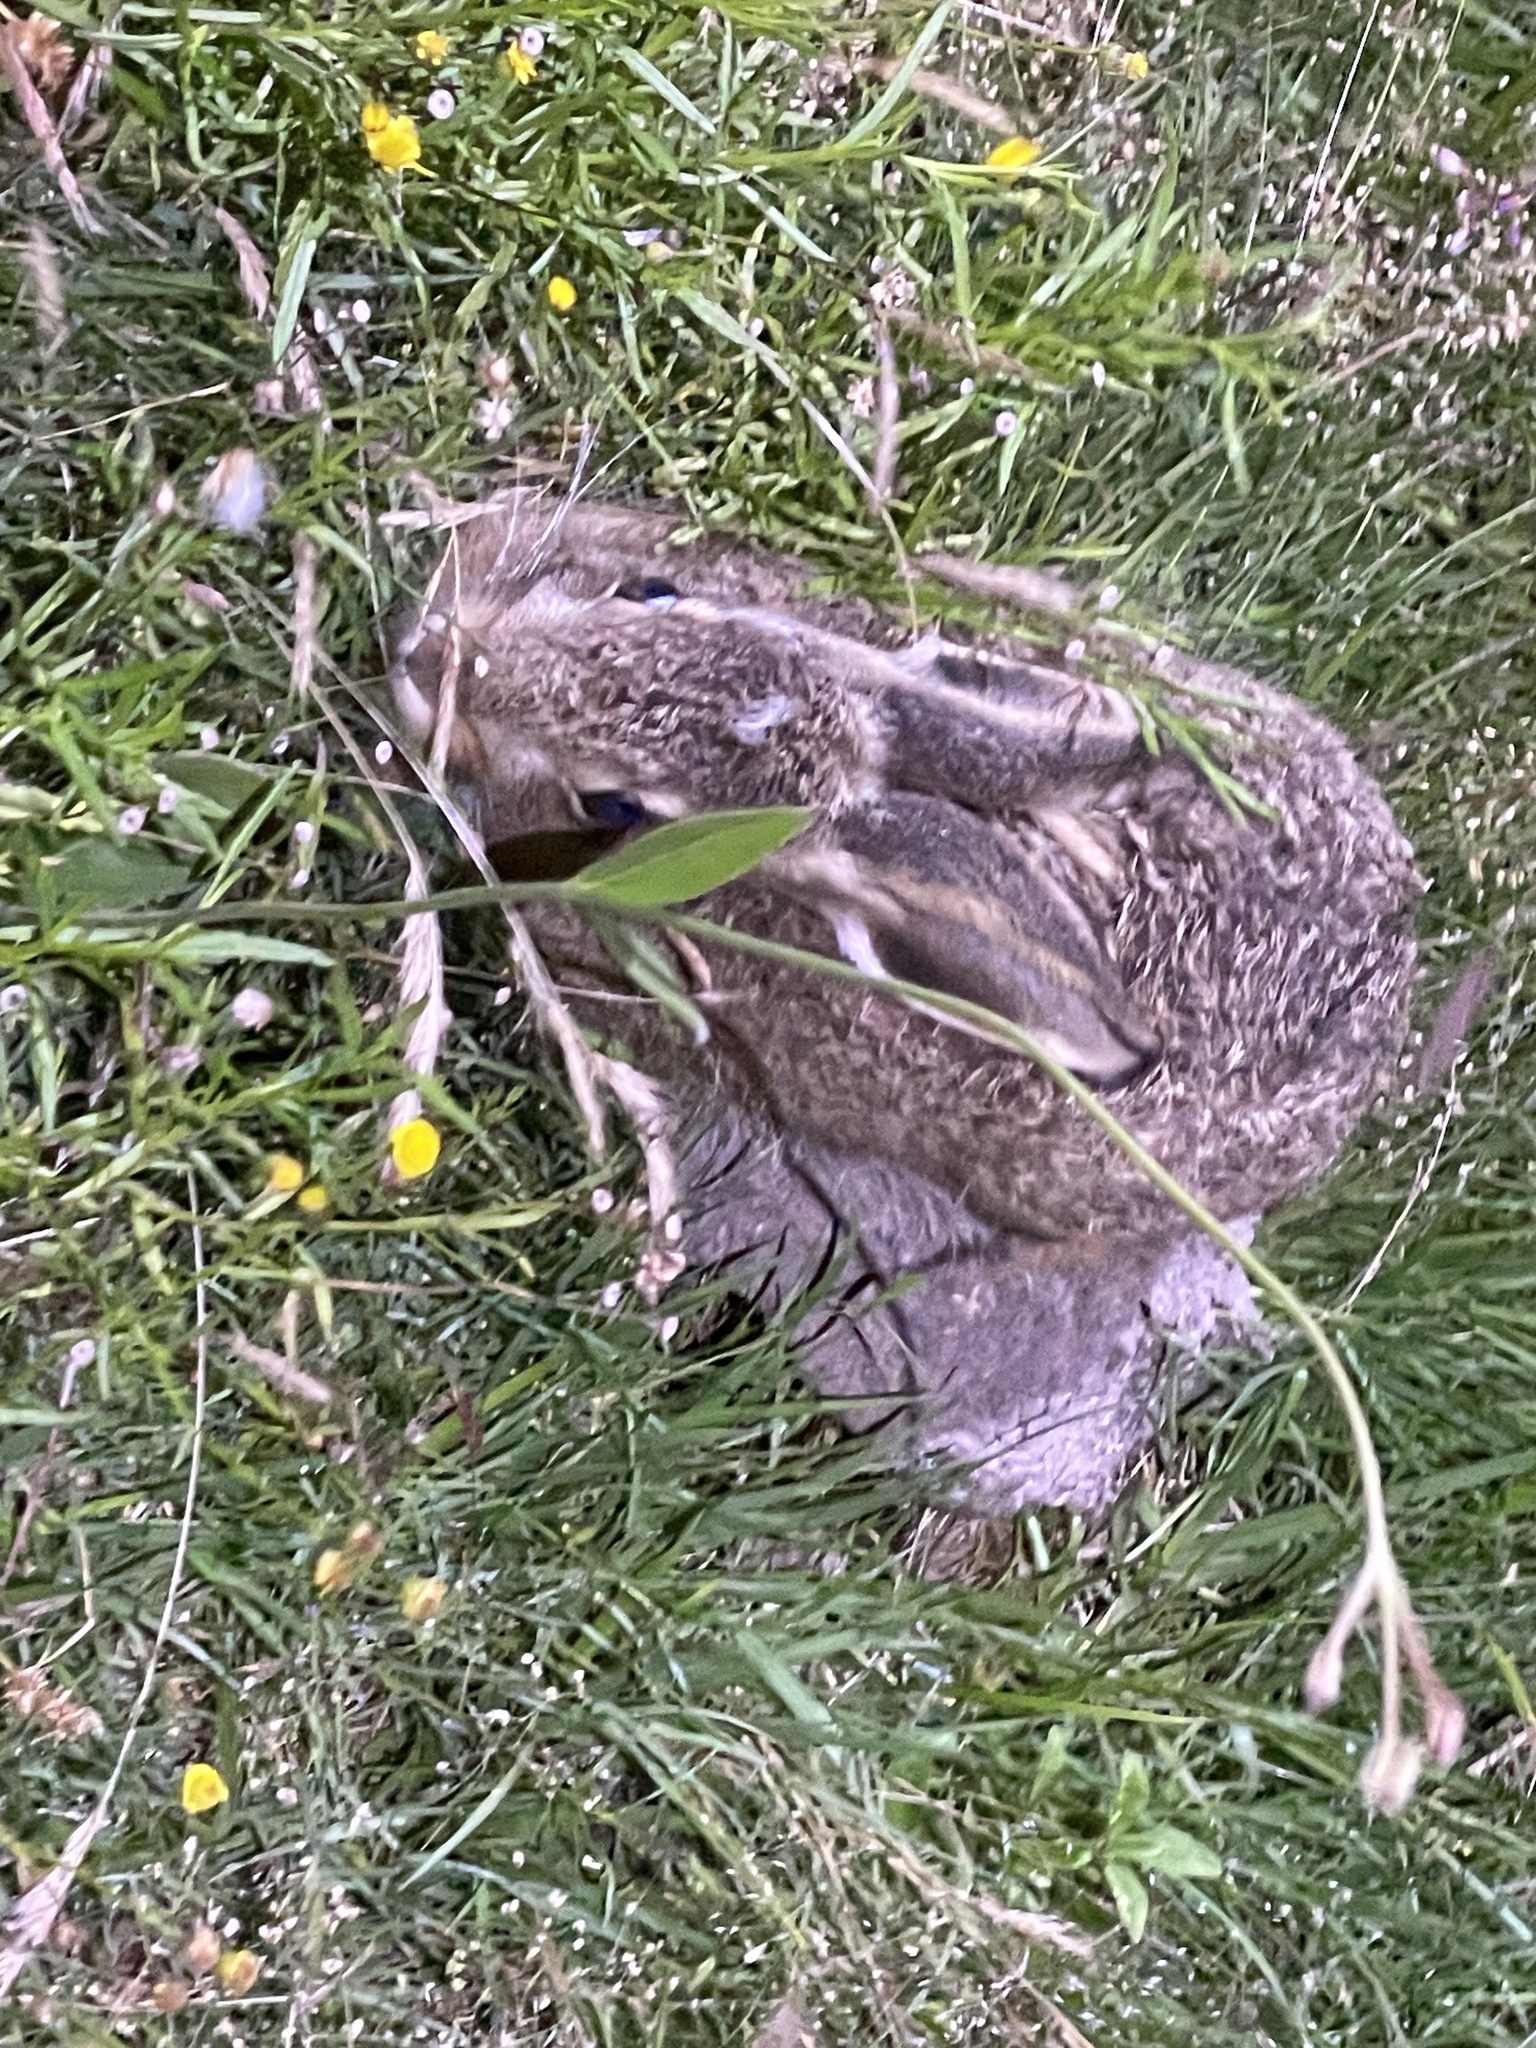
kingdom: Animalia
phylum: Chordata
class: Mammalia
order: Lagomorpha
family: Leporidae
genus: Lepus
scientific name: Lepus europaeus
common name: European hare
